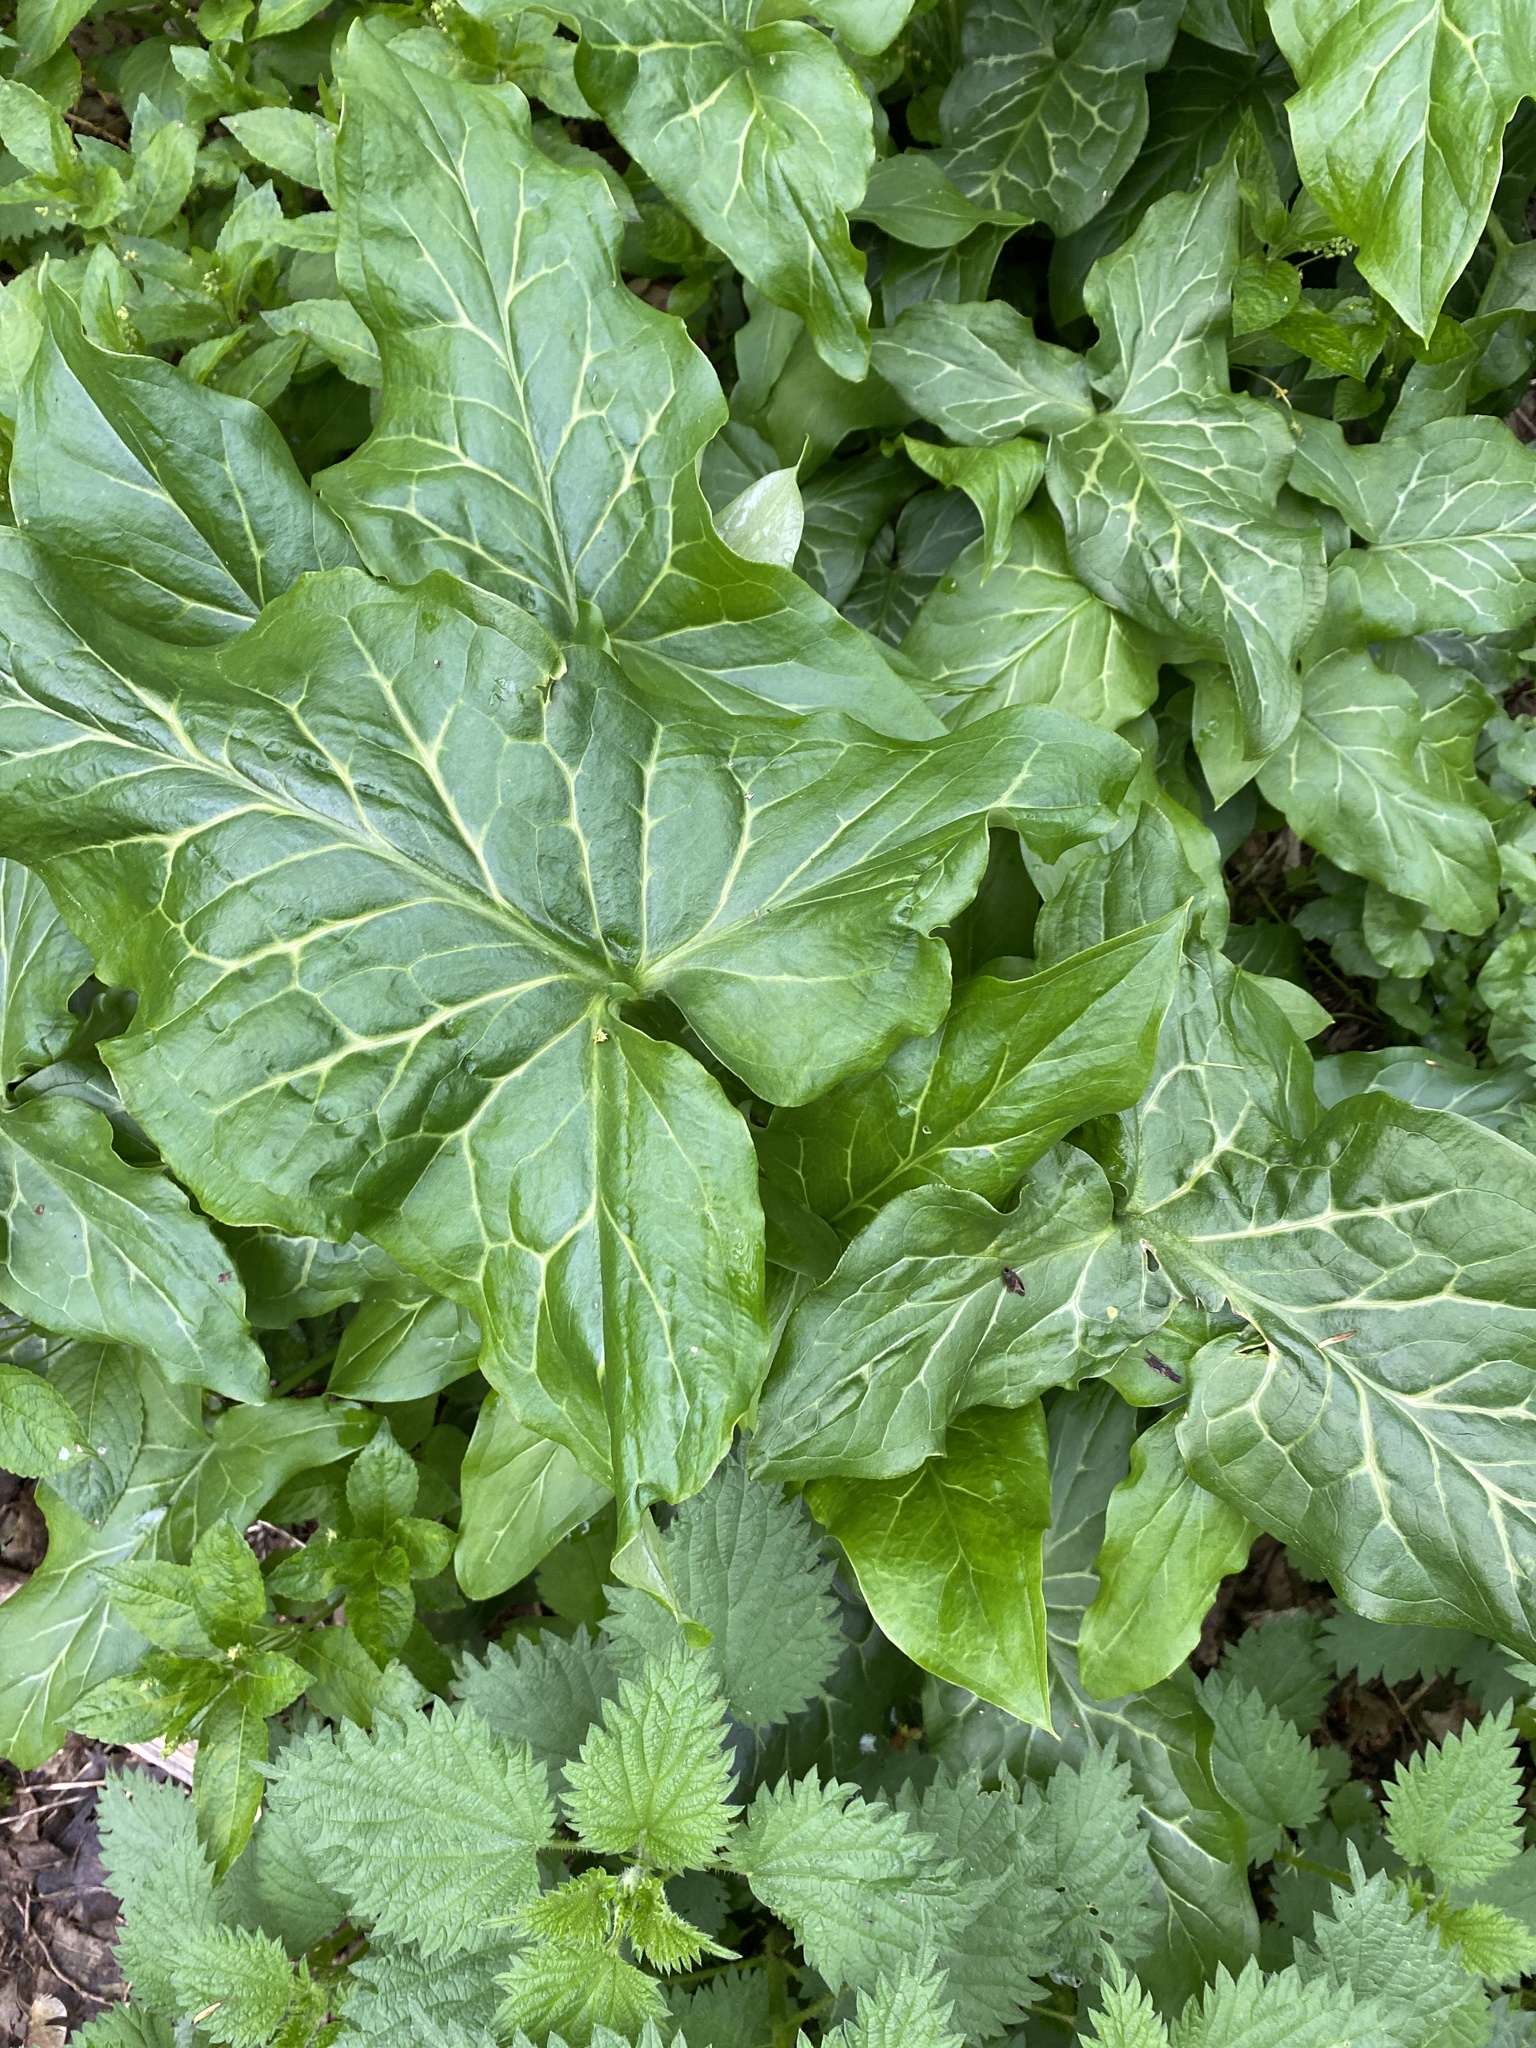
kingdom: Plantae
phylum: Tracheophyta
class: Liliopsida
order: Alismatales
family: Araceae
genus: Arum
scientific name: Arum maculatum
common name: Lords-and-ladies
